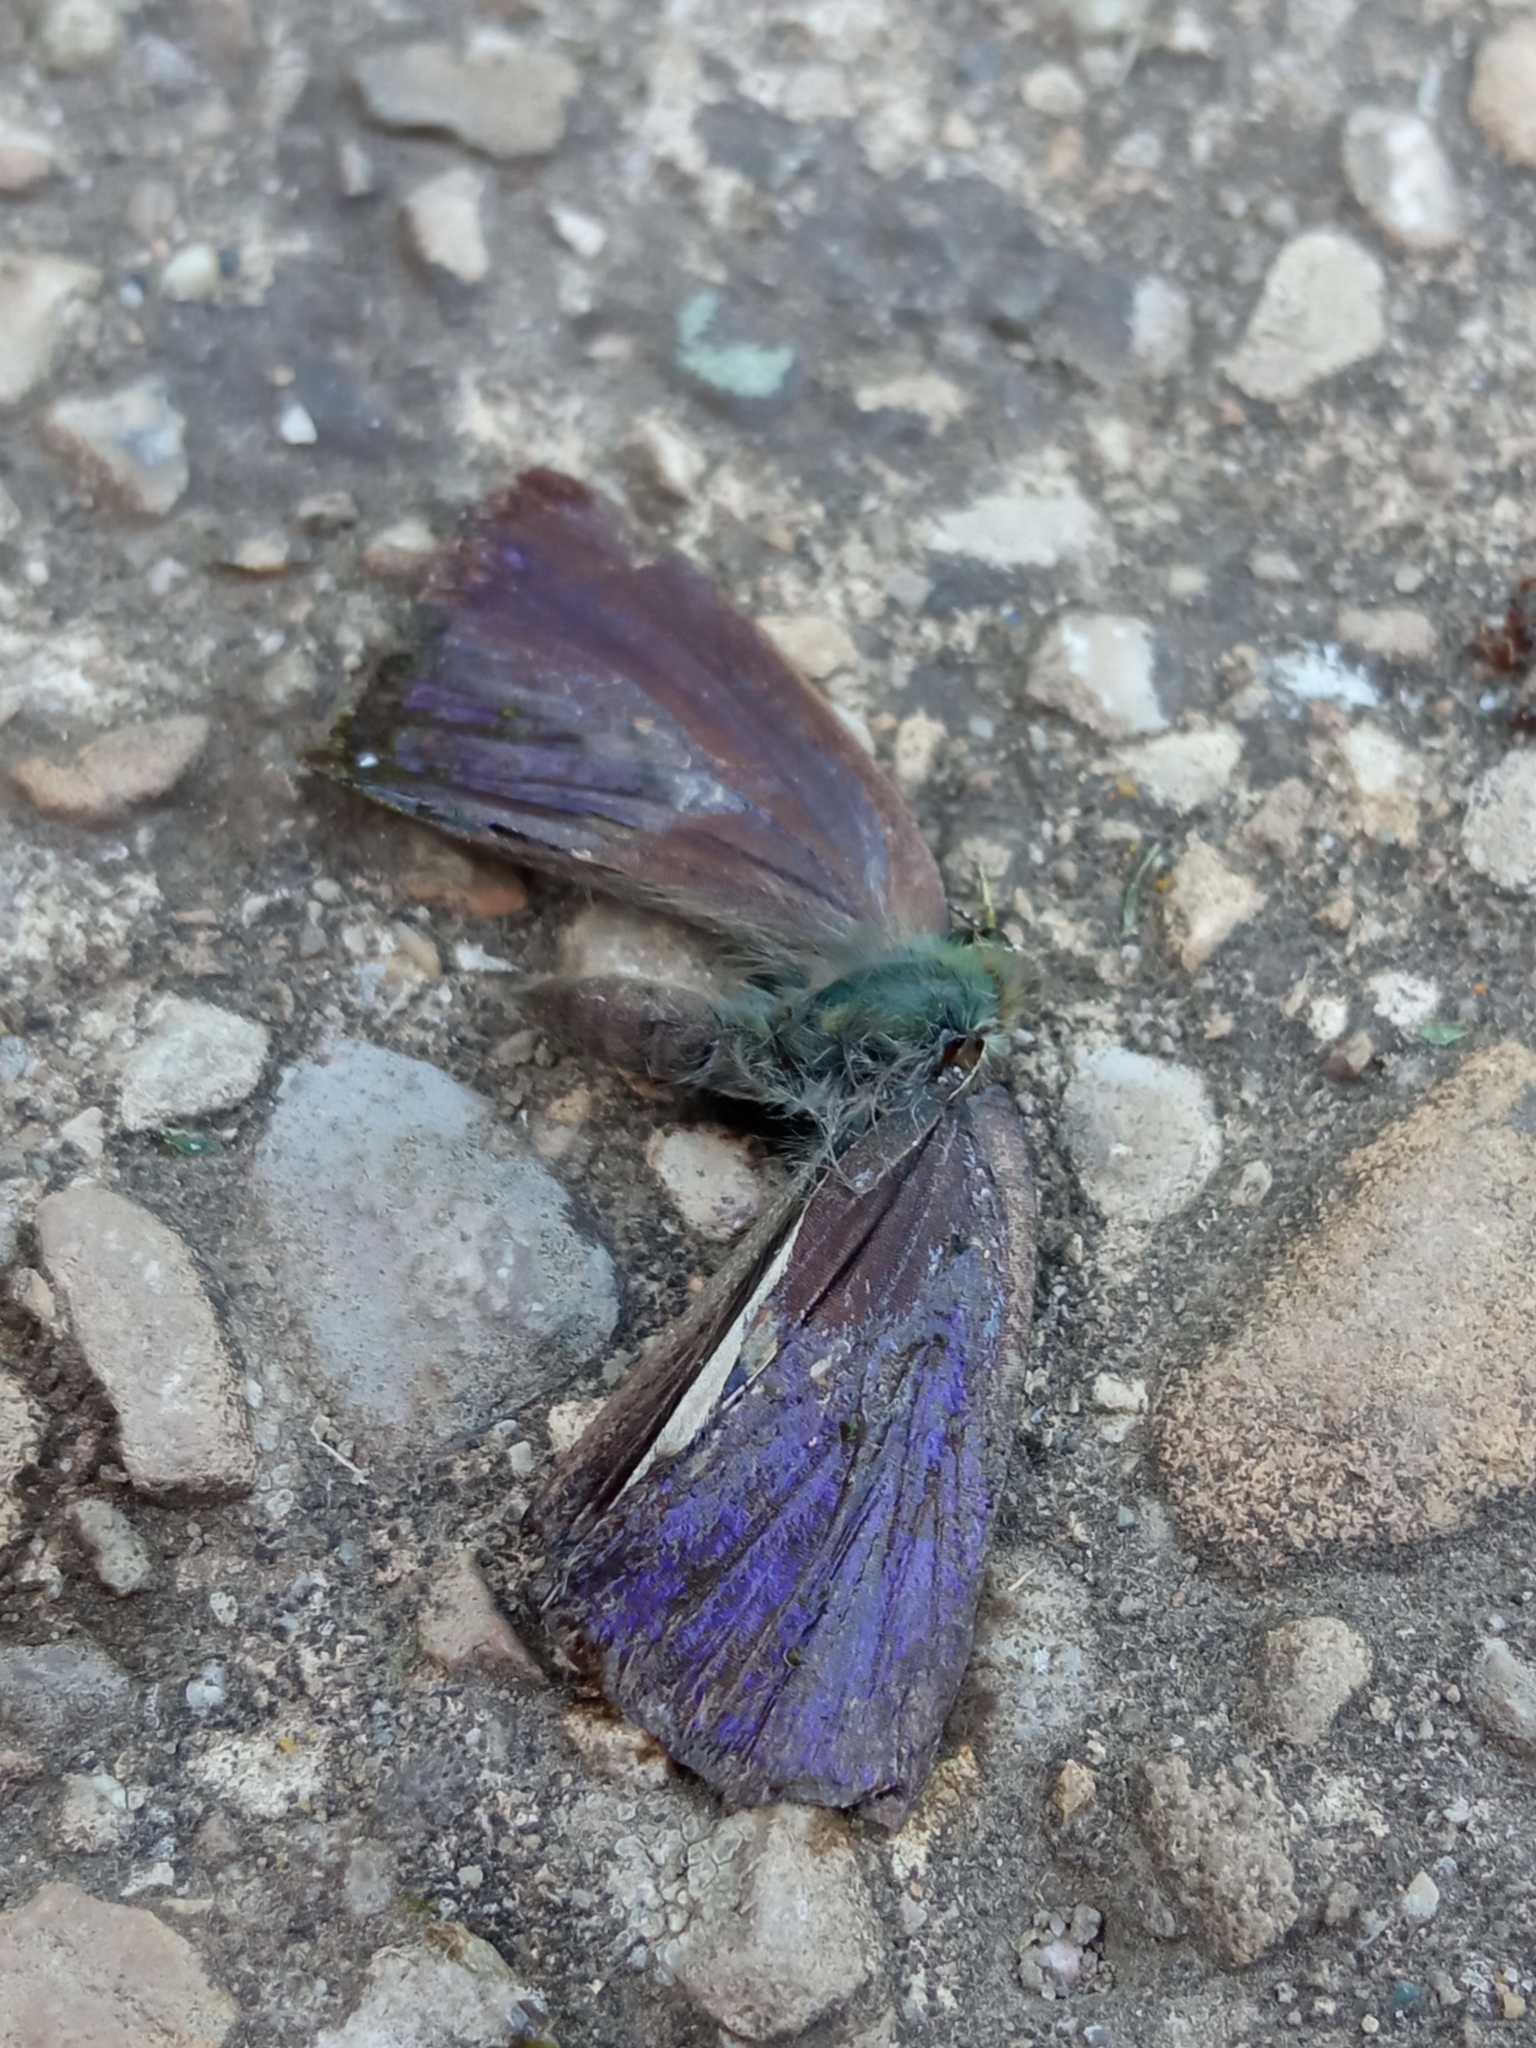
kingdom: Animalia
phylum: Arthropoda
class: Insecta
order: Lepidoptera
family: Lycaenidae
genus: Quercusia
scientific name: Quercusia quercus
